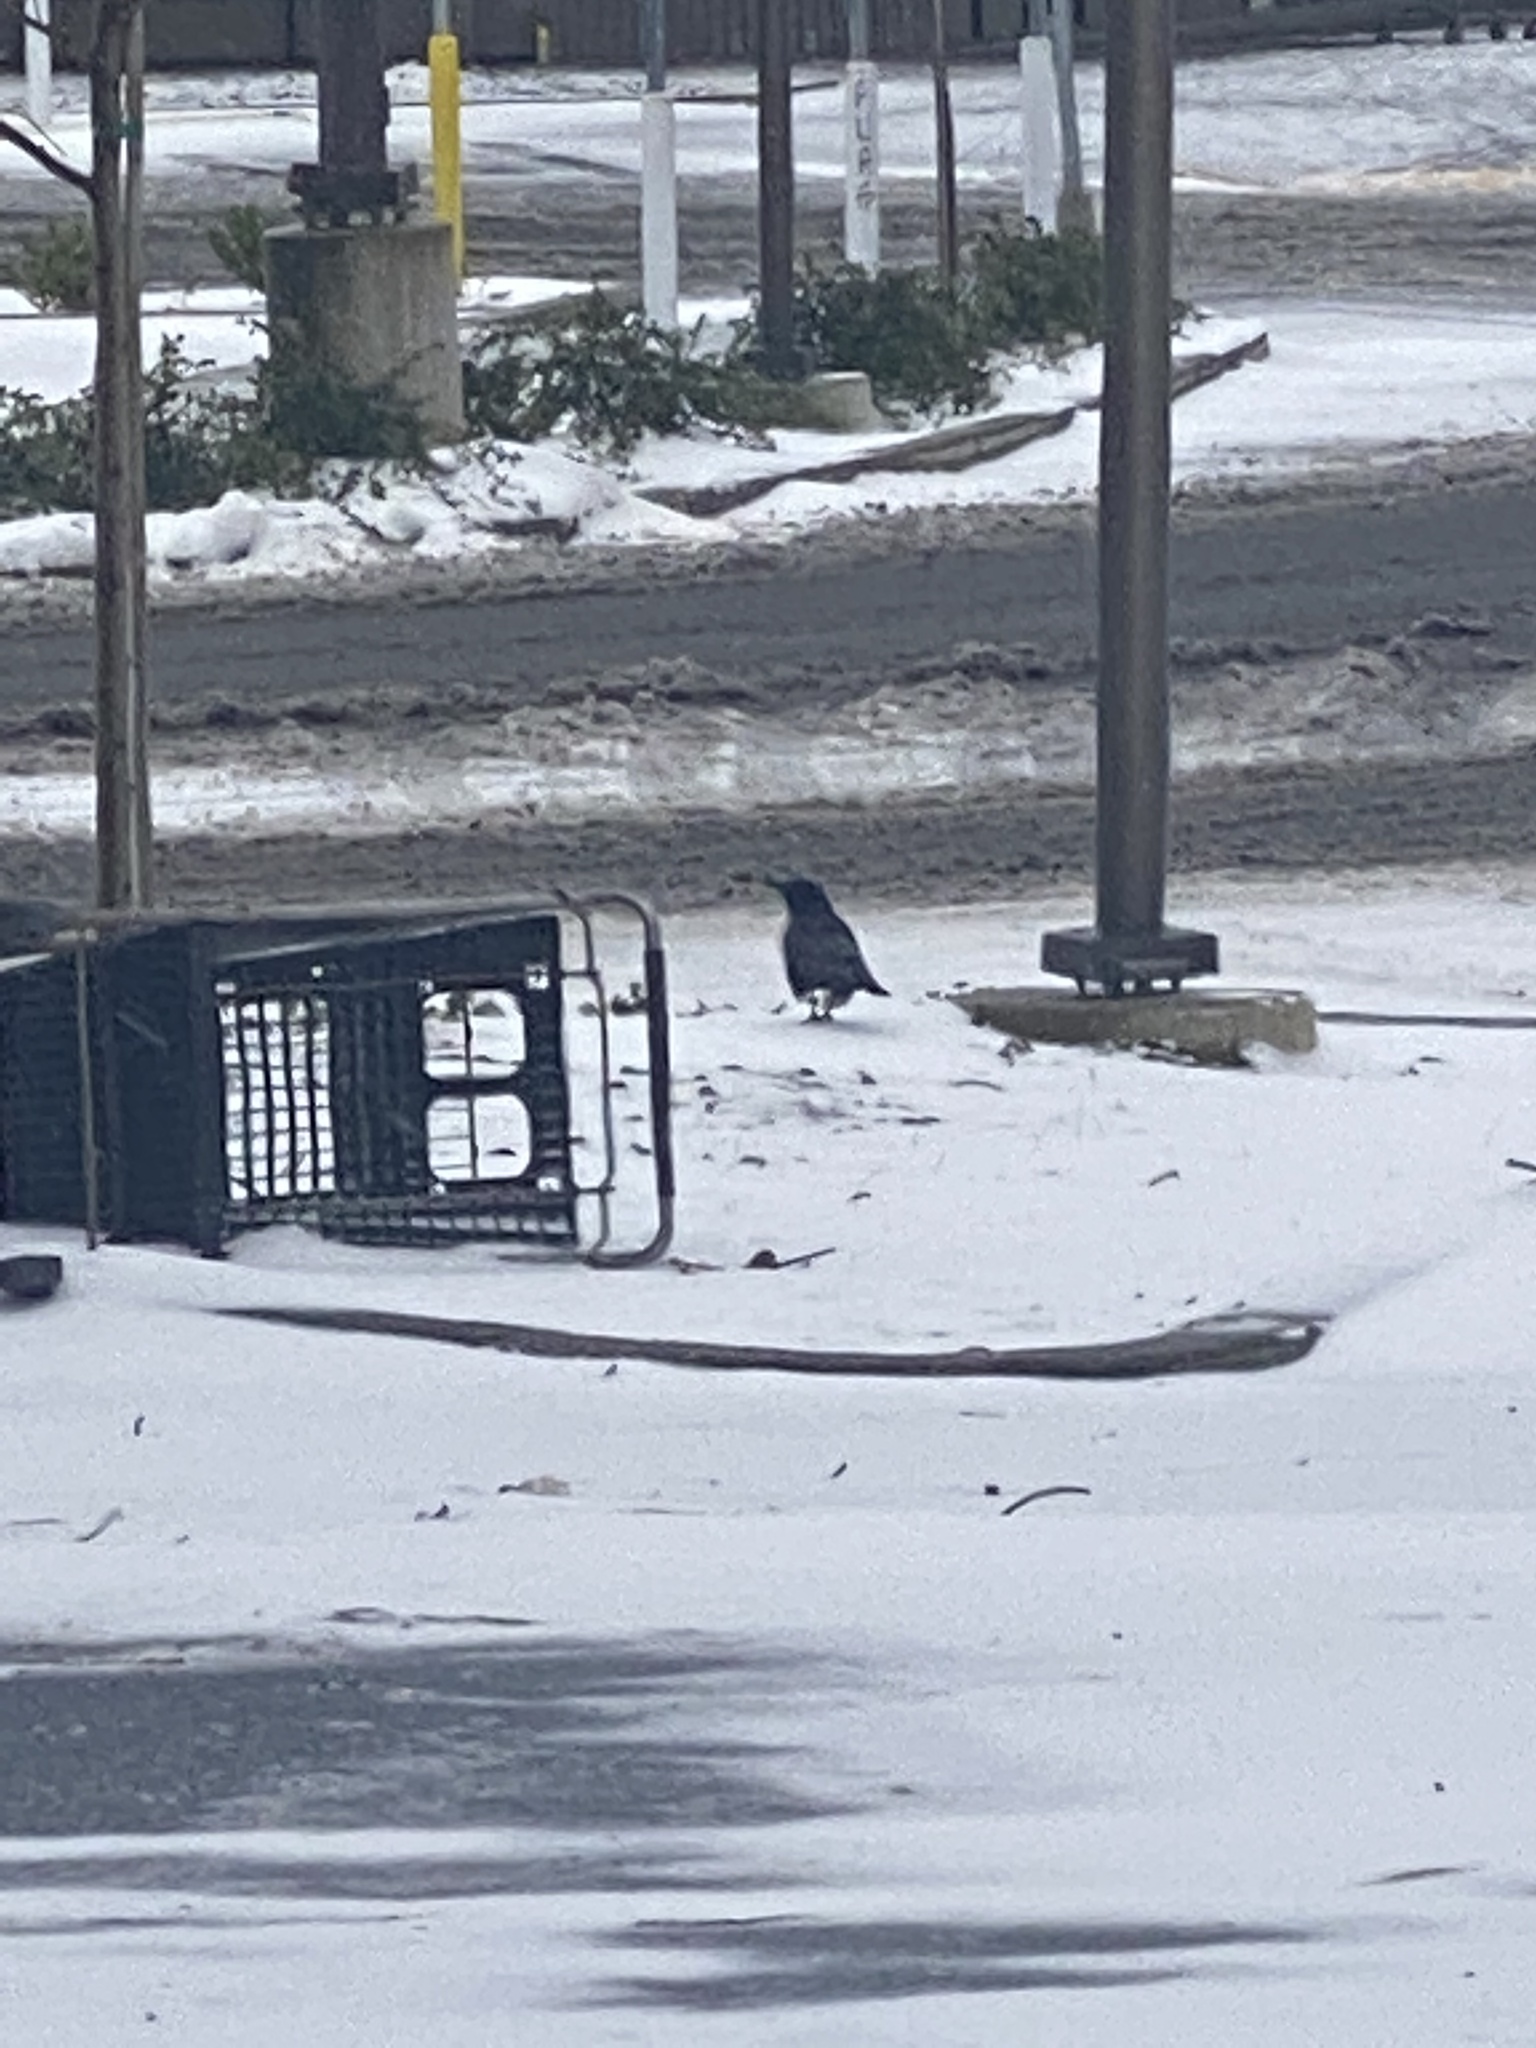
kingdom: Animalia
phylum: Chordata
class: Aves
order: Passeriformes
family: Corvidae
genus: Corvus
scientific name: Corvus brachyrhynchos
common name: American crow
